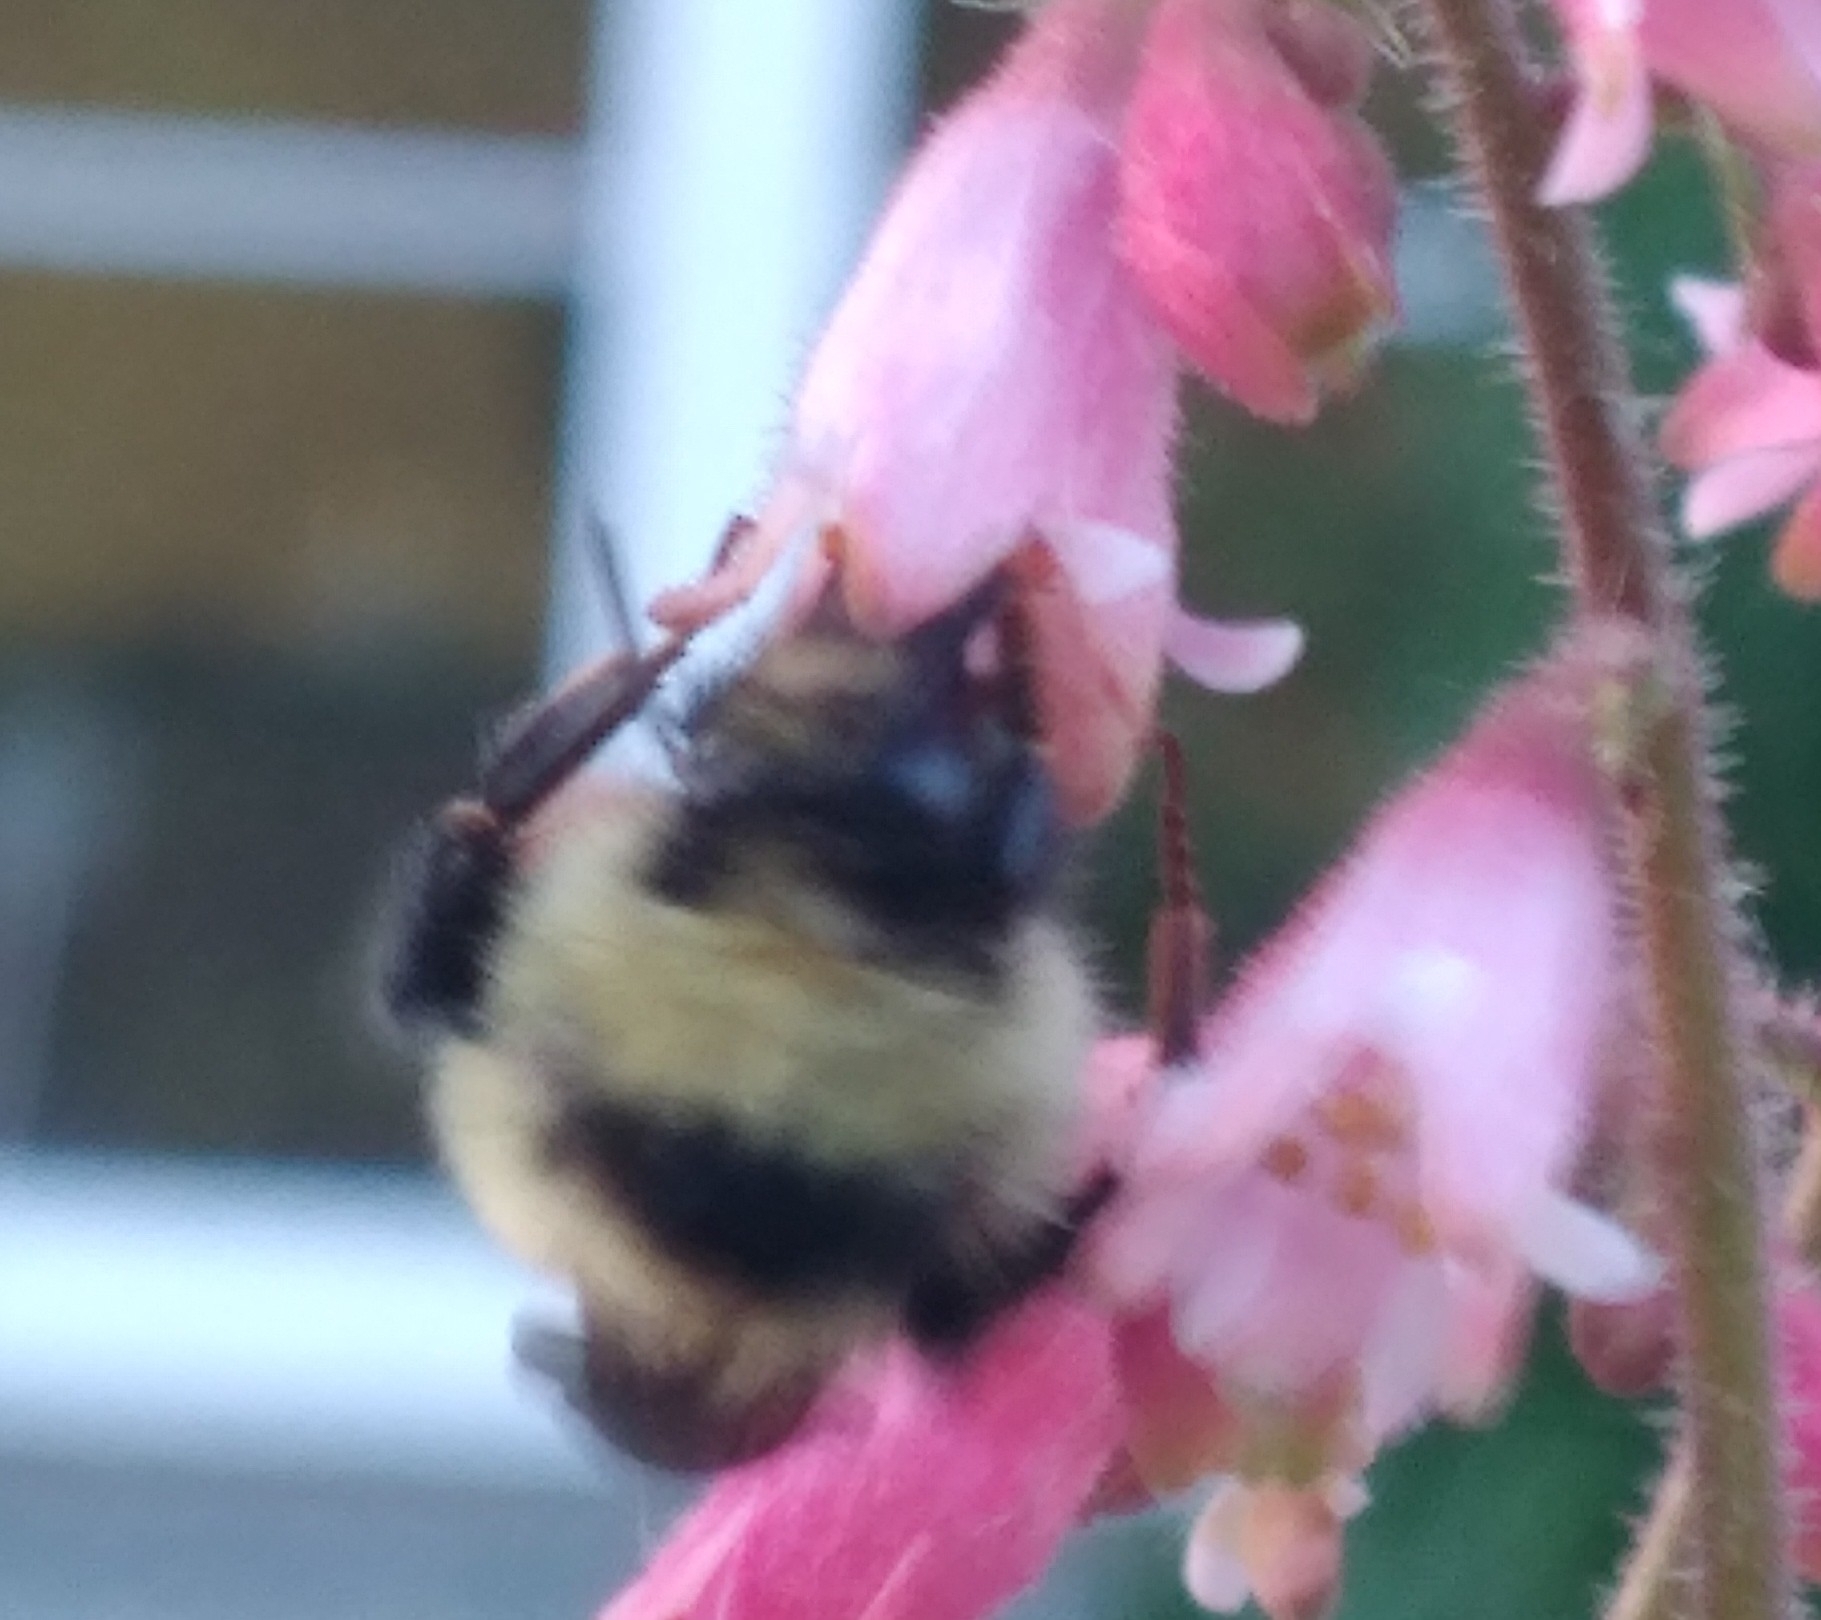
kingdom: Animalia
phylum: Arthropoda
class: Insecta
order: Hymenoptera
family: Apidae
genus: Bombus
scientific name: Bombus centralis
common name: Central bumble bee
